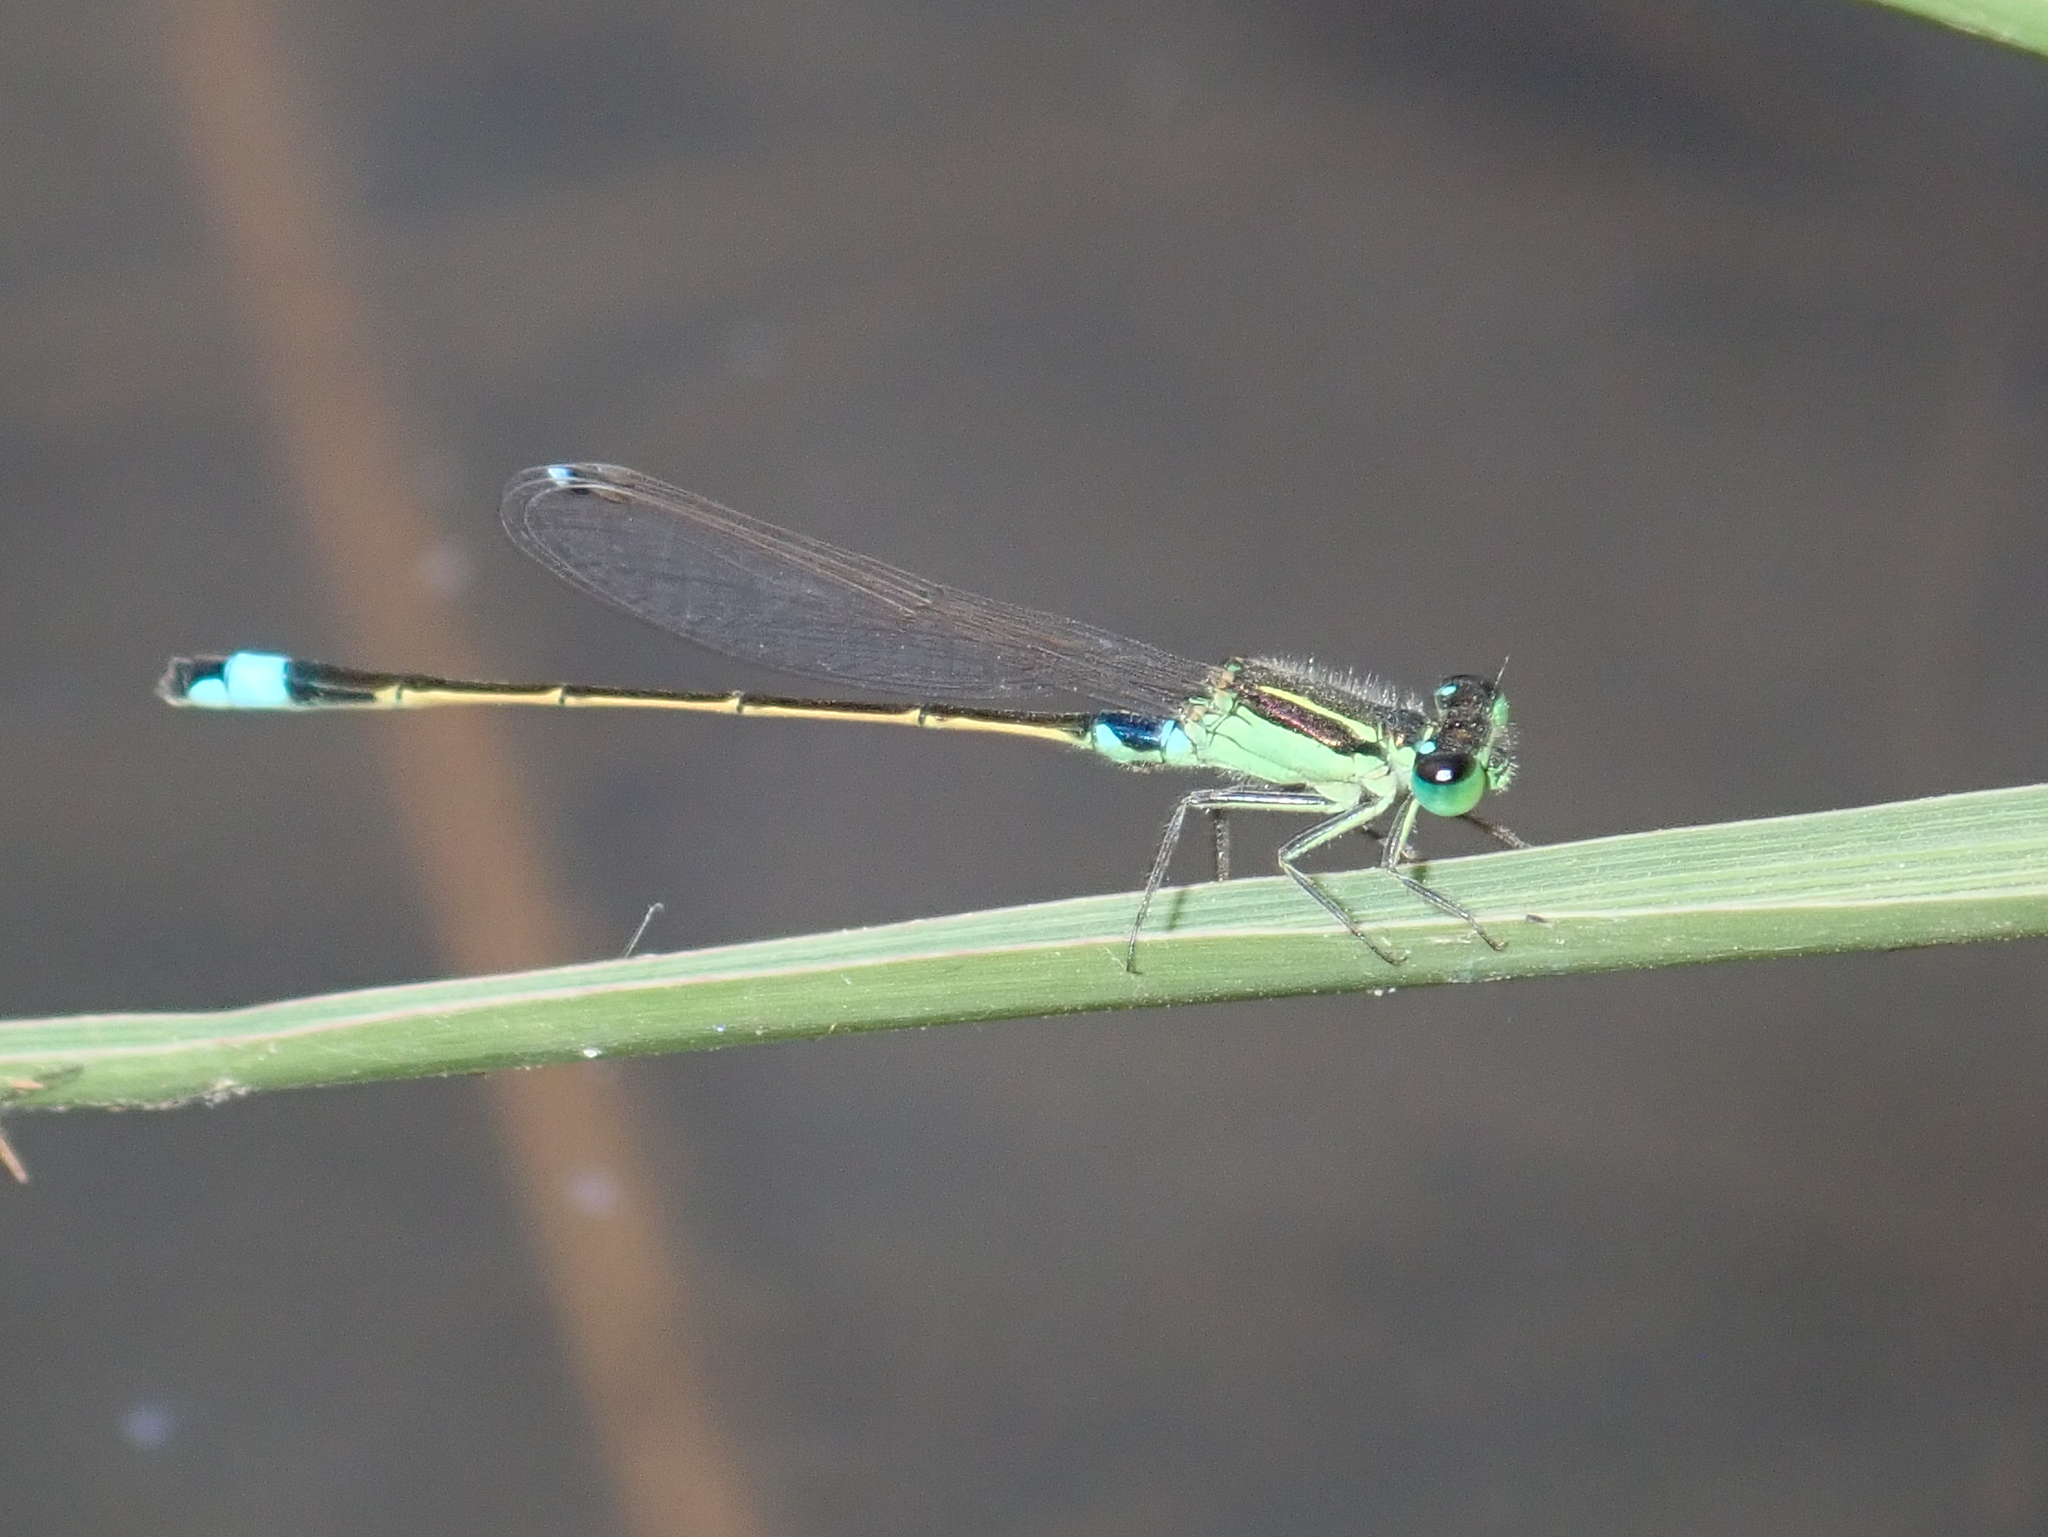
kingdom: Animalia
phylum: Arthropoda
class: Insecta
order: Odonata
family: Coenagrionidae
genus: Ischnura
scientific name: Ischnura senegalensis
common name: Tropical bluetail
